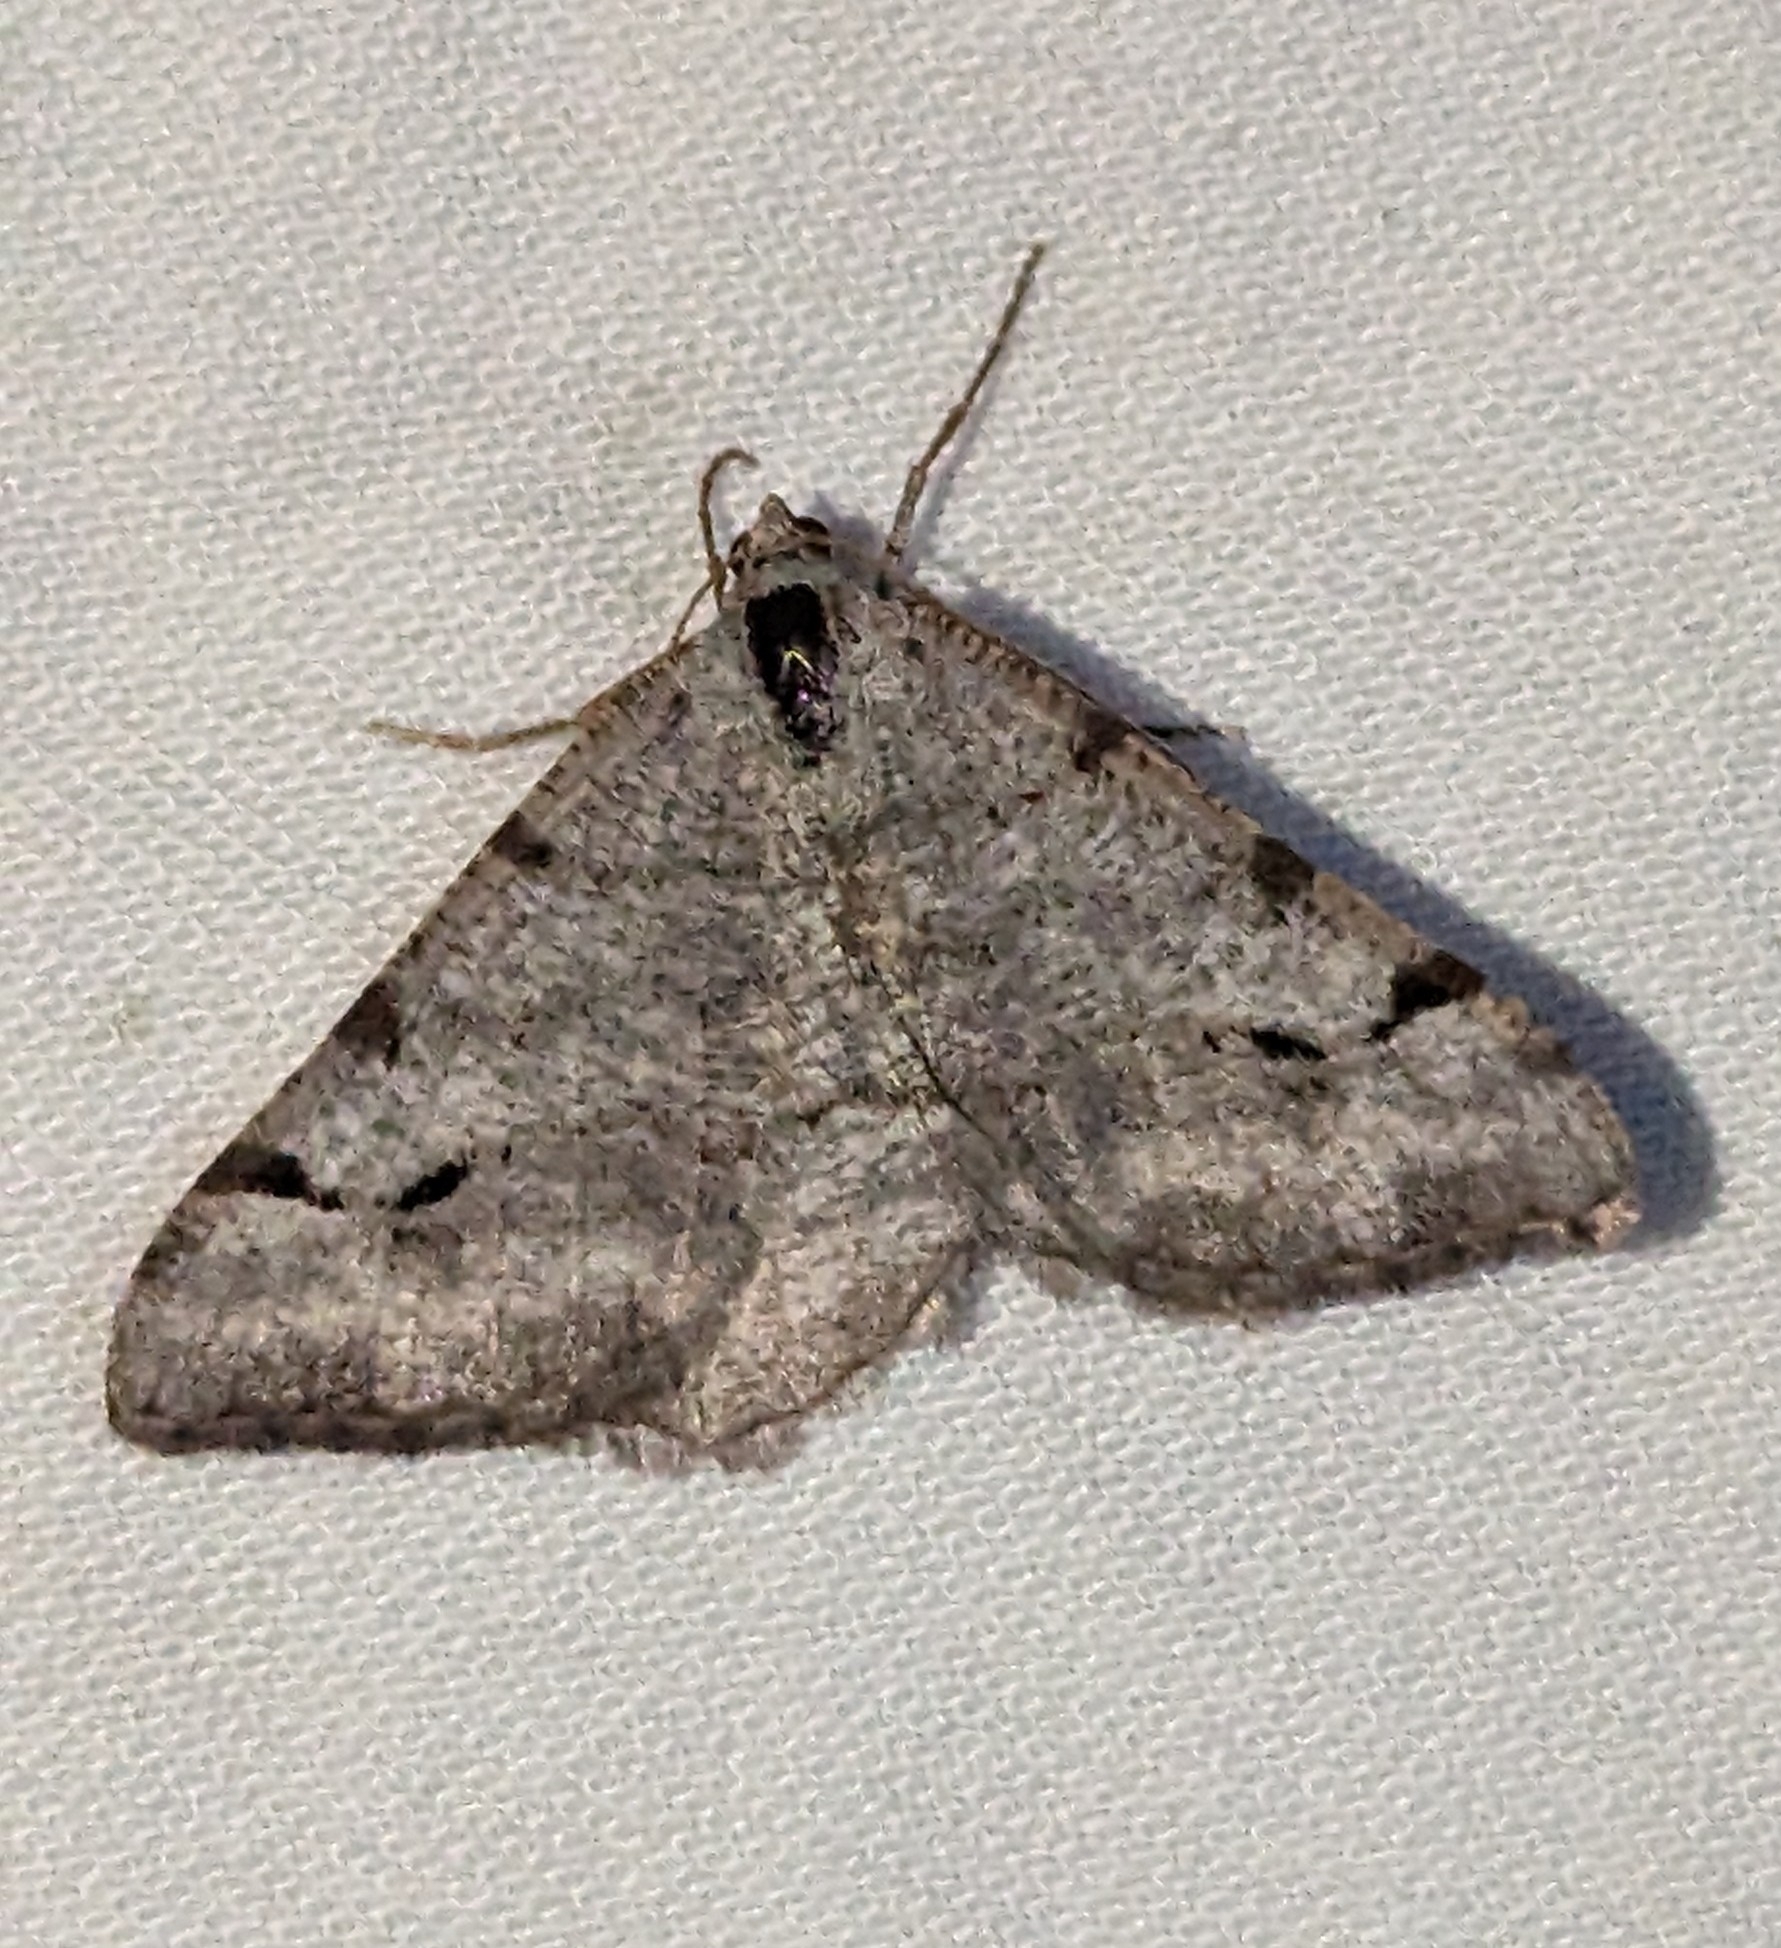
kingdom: Animalia
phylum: Arthropoda
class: Insecta
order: Lepidoptera
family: Geometridae
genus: Digrammia
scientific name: Digrammia denticulata
